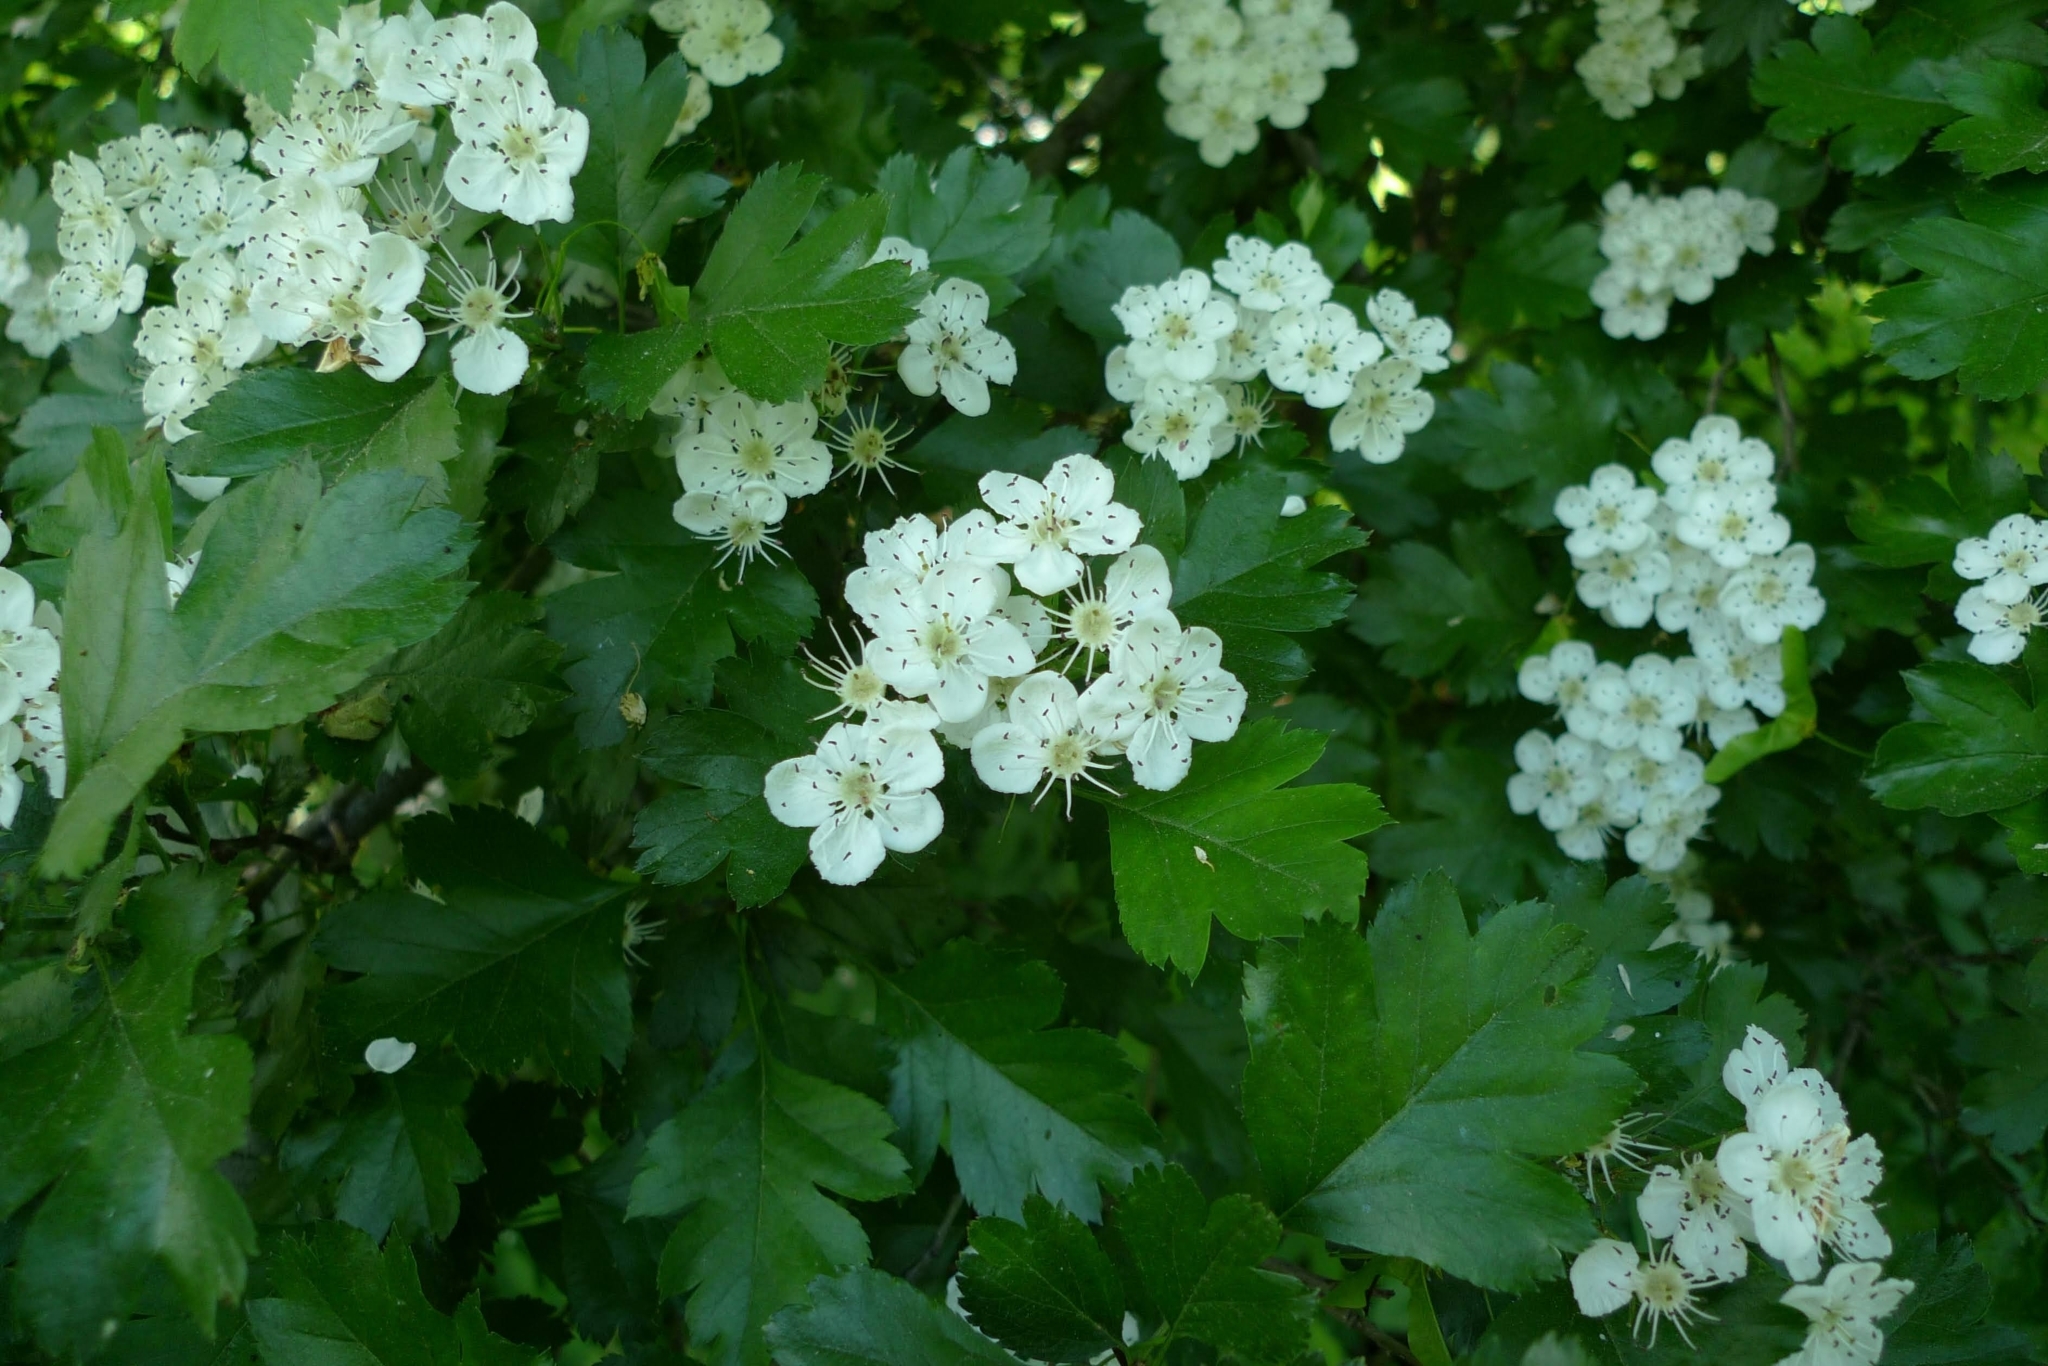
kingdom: Plantae
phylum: Tracheophyta
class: Magnoliopsida
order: Rosales
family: Rosaceae
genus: Crataegus
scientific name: Crataegus monogyna
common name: Hawthorn
